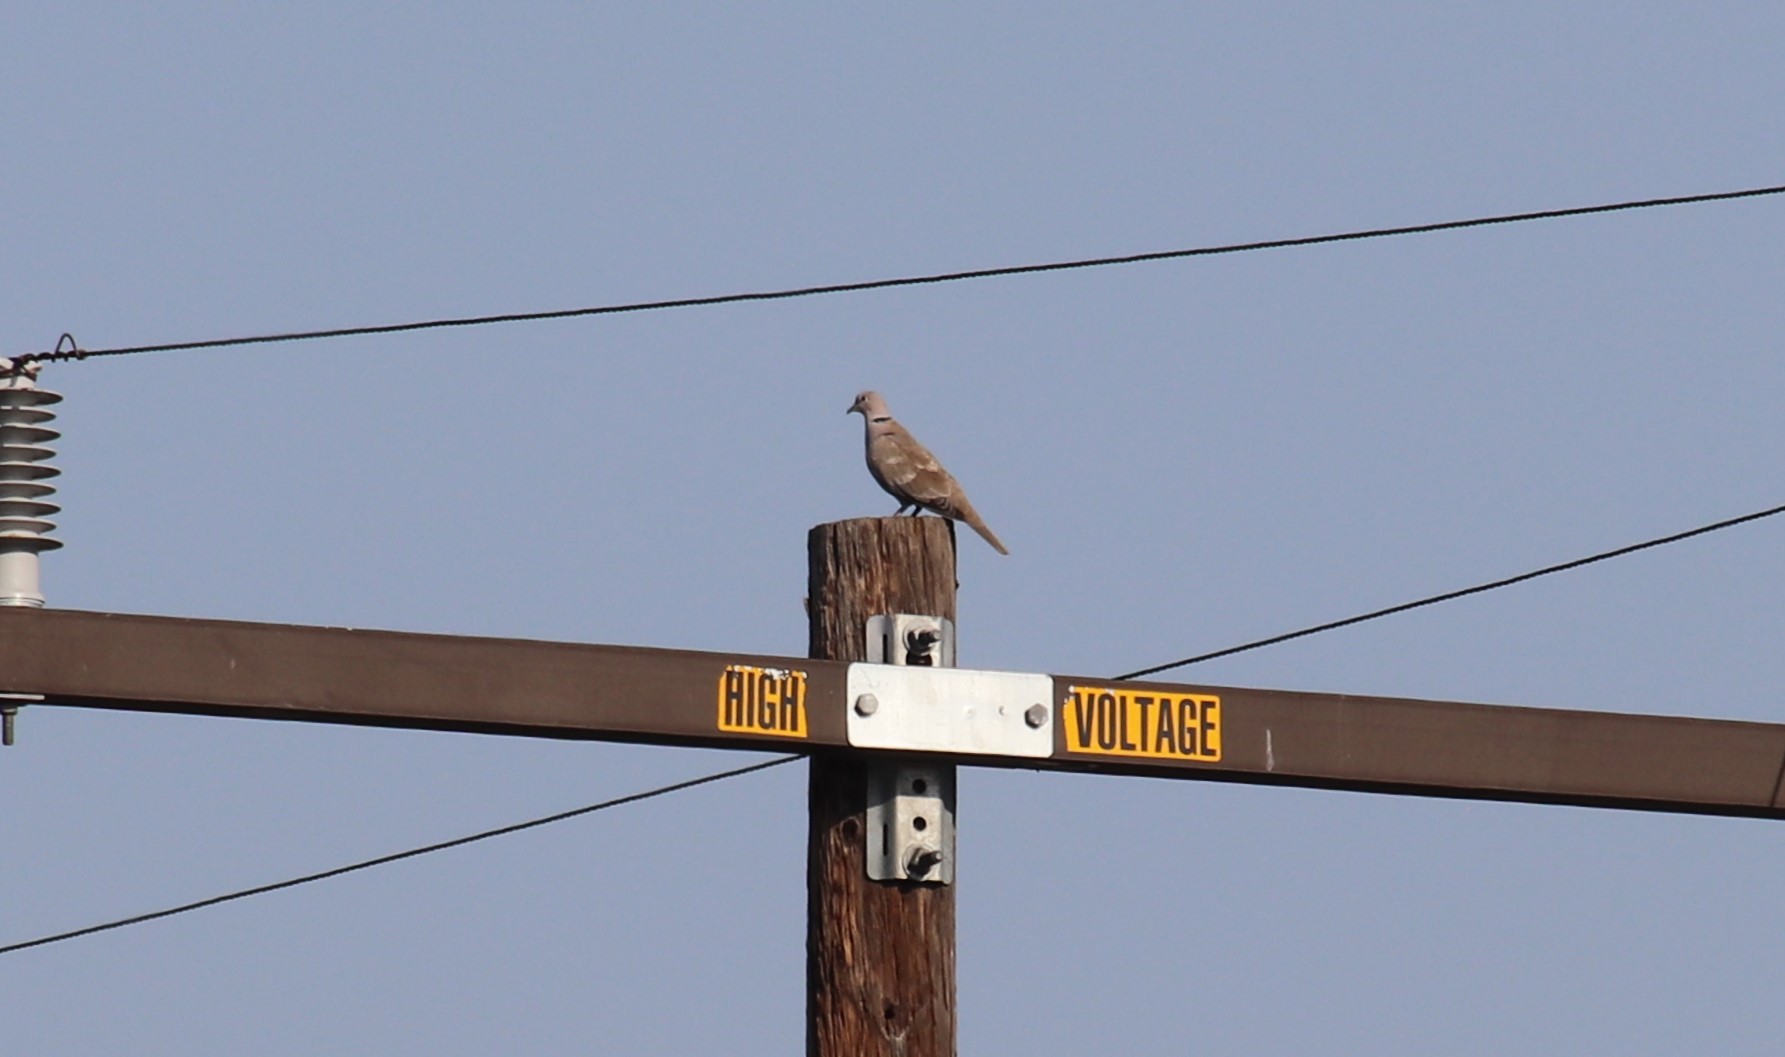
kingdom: Animalia
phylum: Chordata
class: Aves
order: Columbiformes
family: Columbidae
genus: Streptopelia
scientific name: Streptopelia decaocto
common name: Eurasian collared dove
